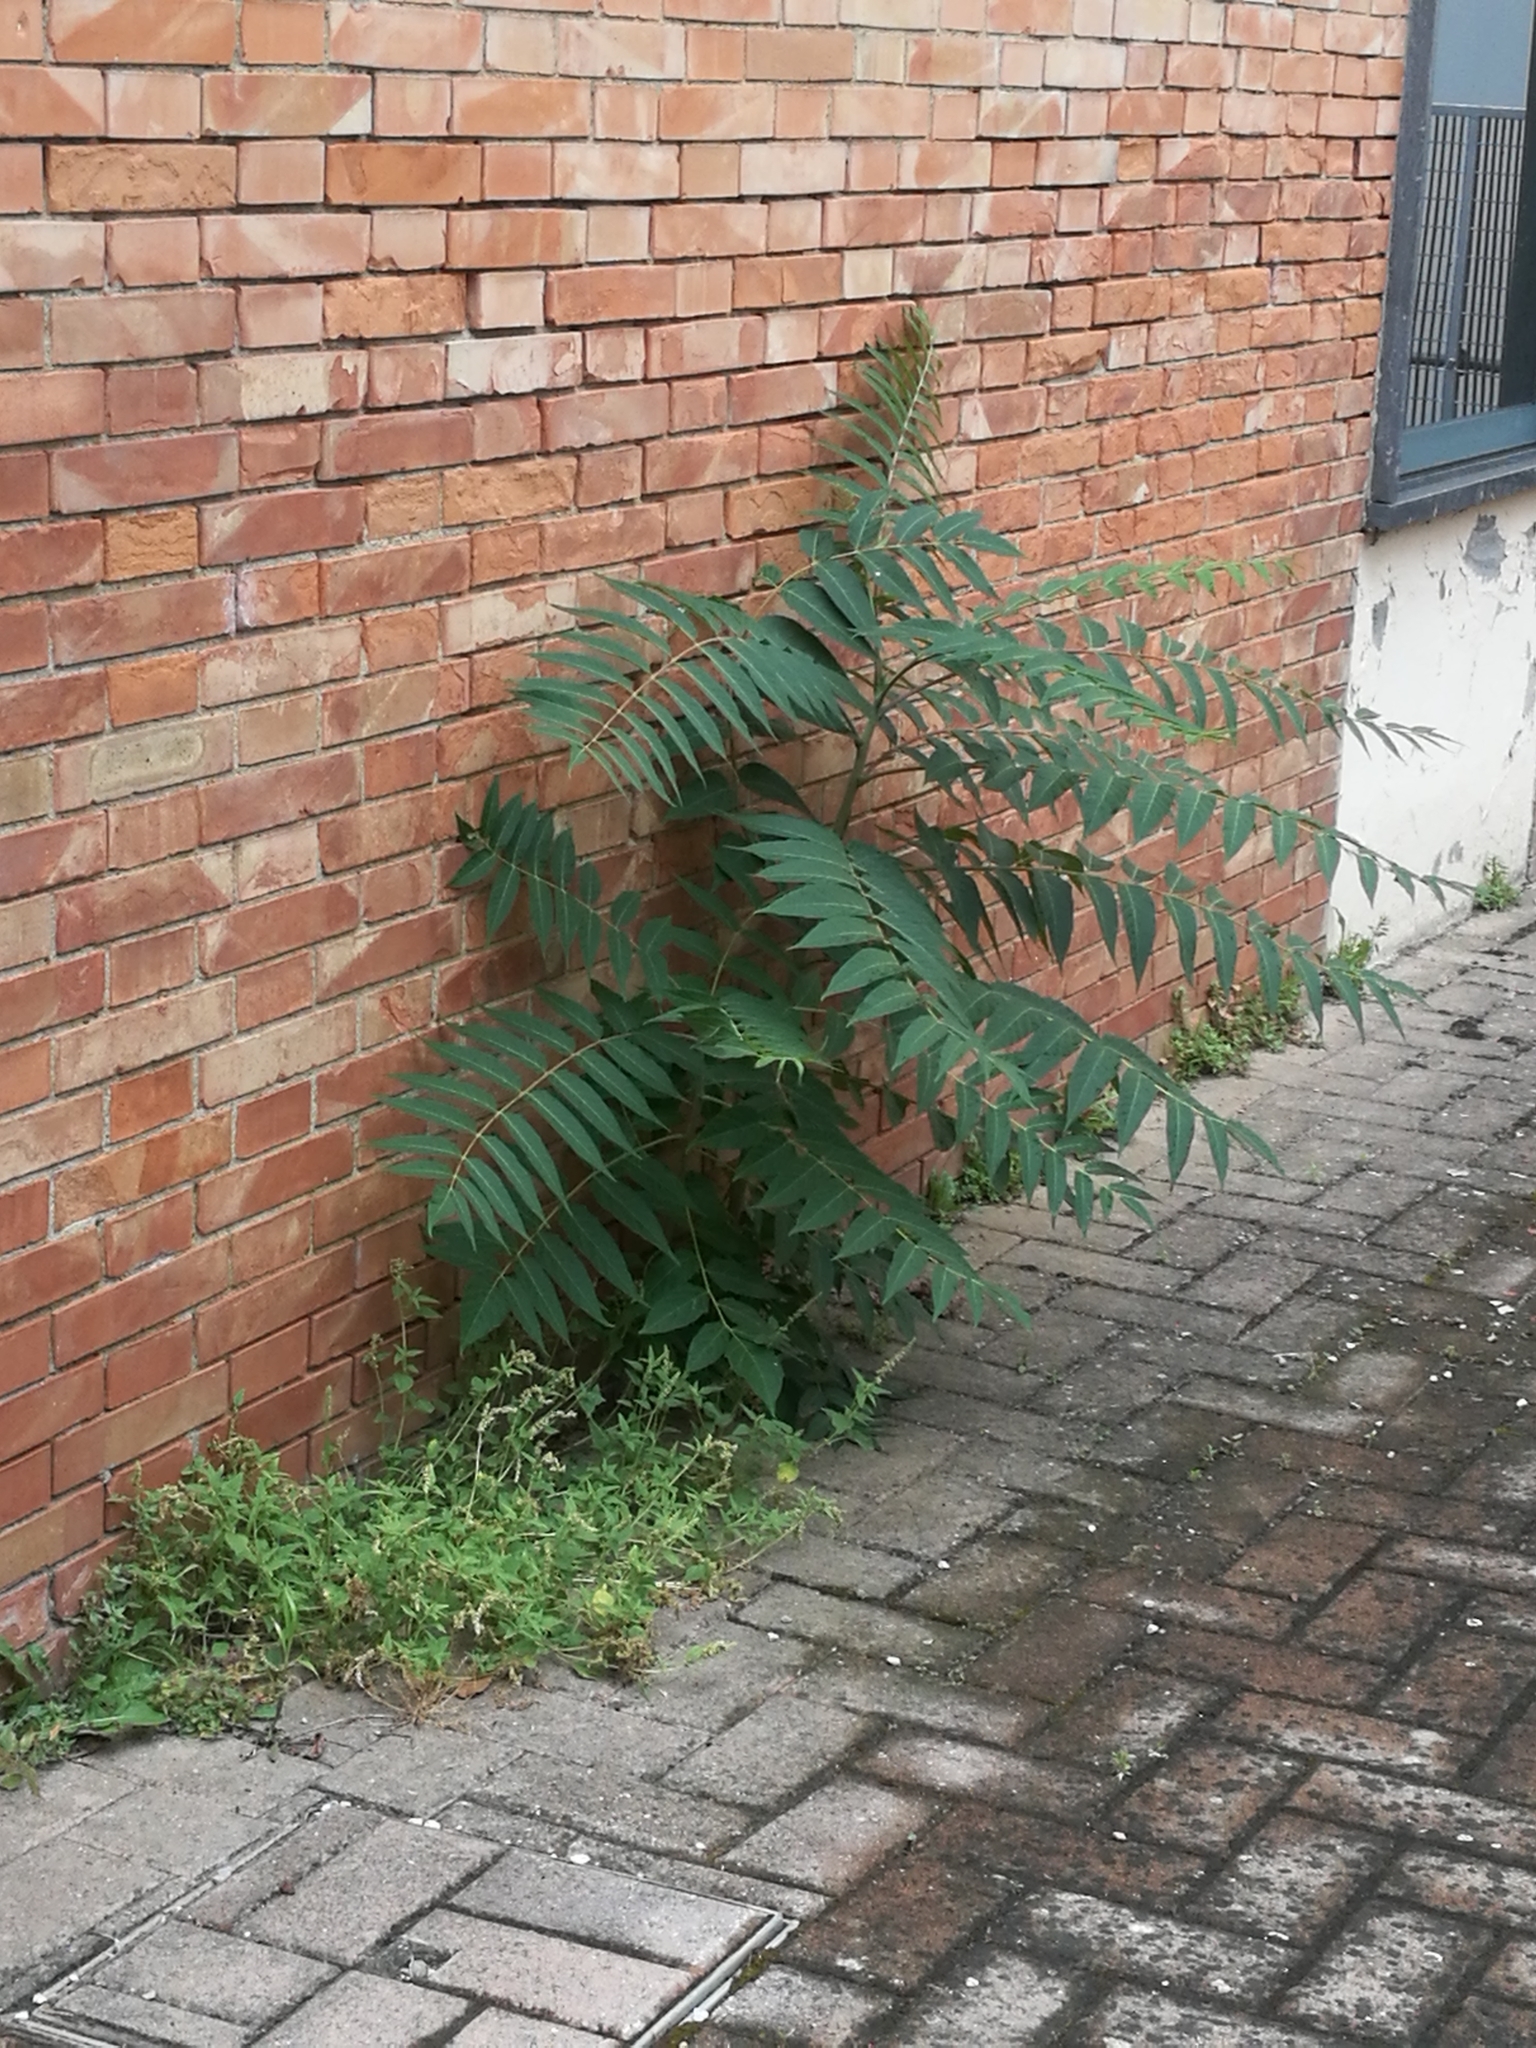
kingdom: Plantae
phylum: Tracheophyta
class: Magnoliopsida
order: Sapindales
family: Simaroubaceae
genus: Ailanthus
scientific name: Ailanthus altissima
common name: Tree-of-heaven
